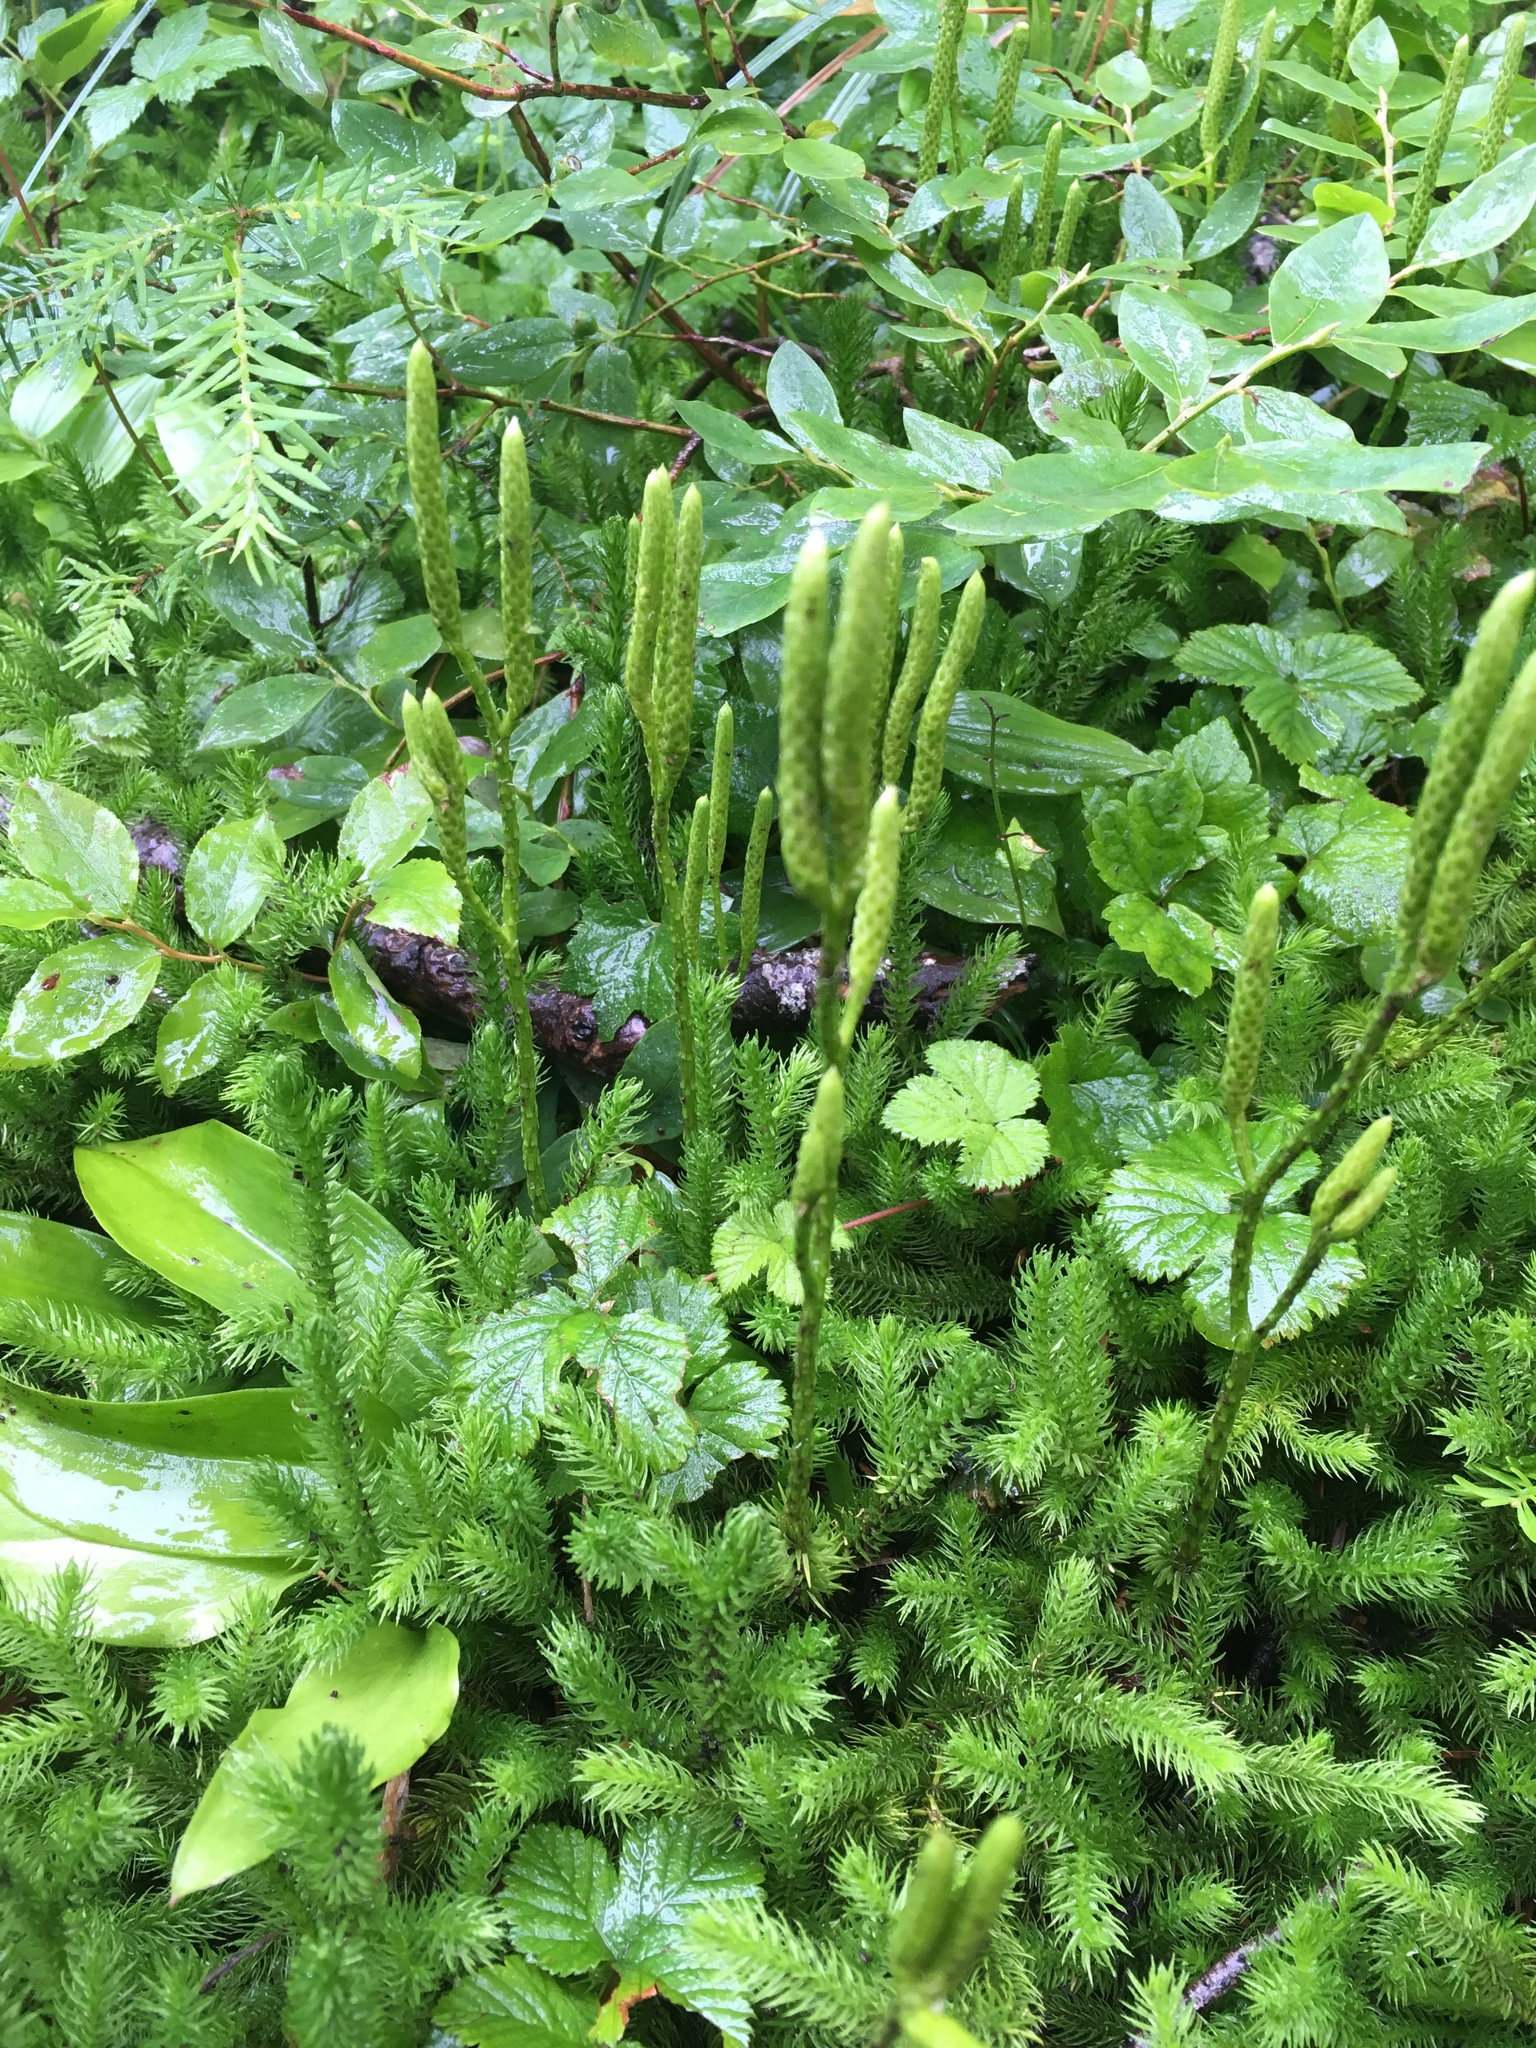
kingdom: Plantae
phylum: Tracheophyta
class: Lycopodiopsida
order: Lycopodiales
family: Lycopodiaceae
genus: Lycopodium
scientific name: Lycopodium clavatum
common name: Stag's-horn clubmoss
